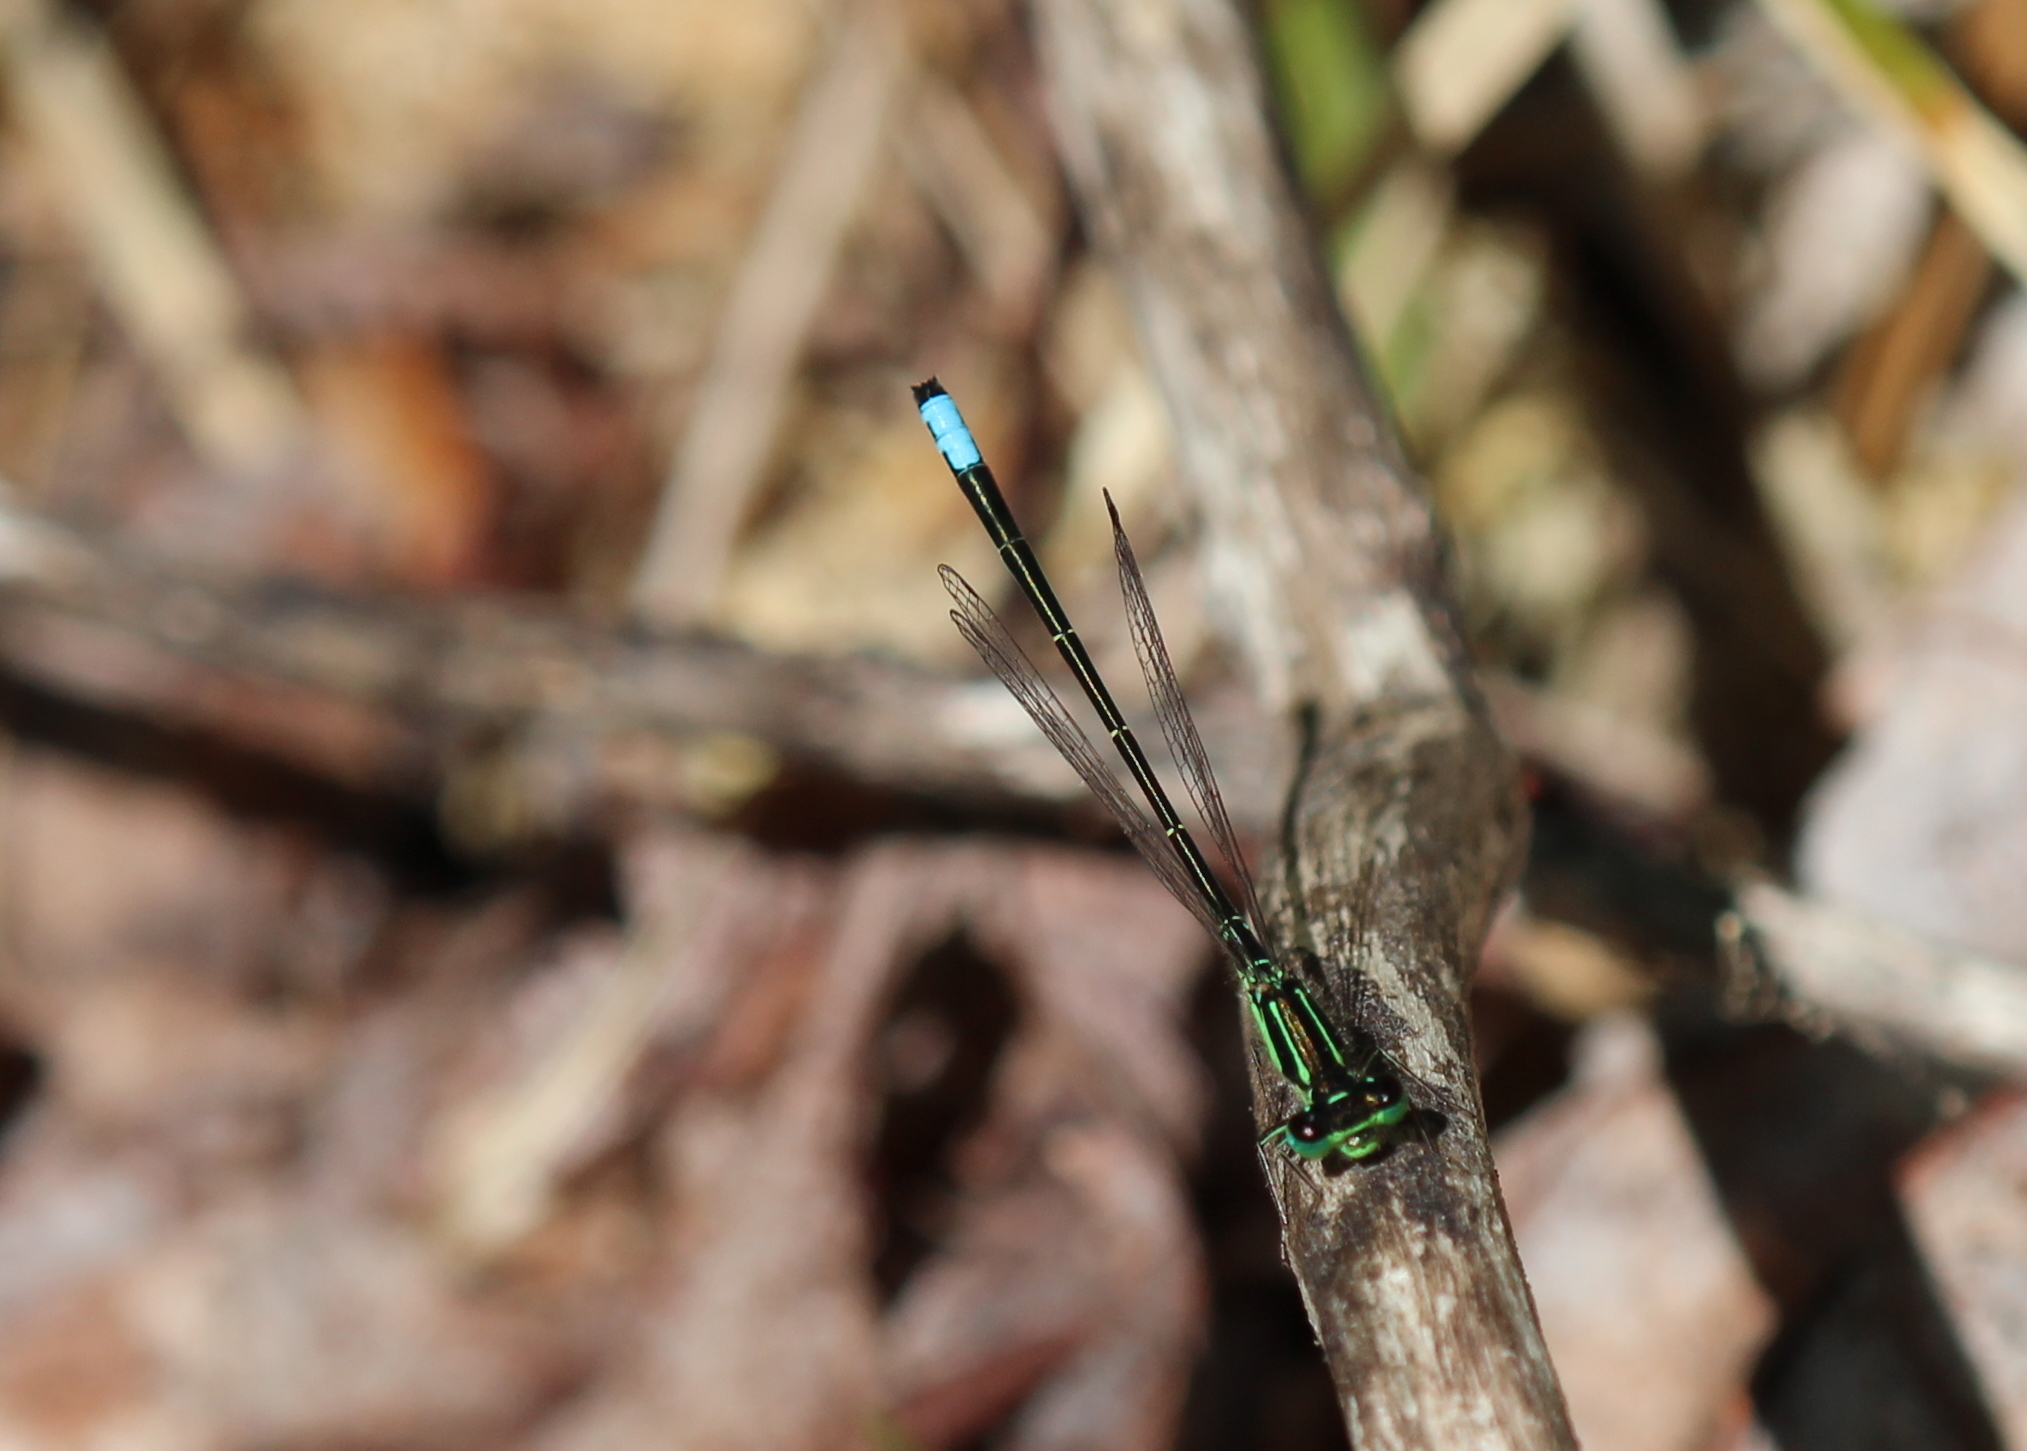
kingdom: Animalia
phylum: Arthropoda
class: Insecta
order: Odonata
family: Coenagrionidae
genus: Ischnura
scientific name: Ischnura verticalis
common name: Eastern forktail
